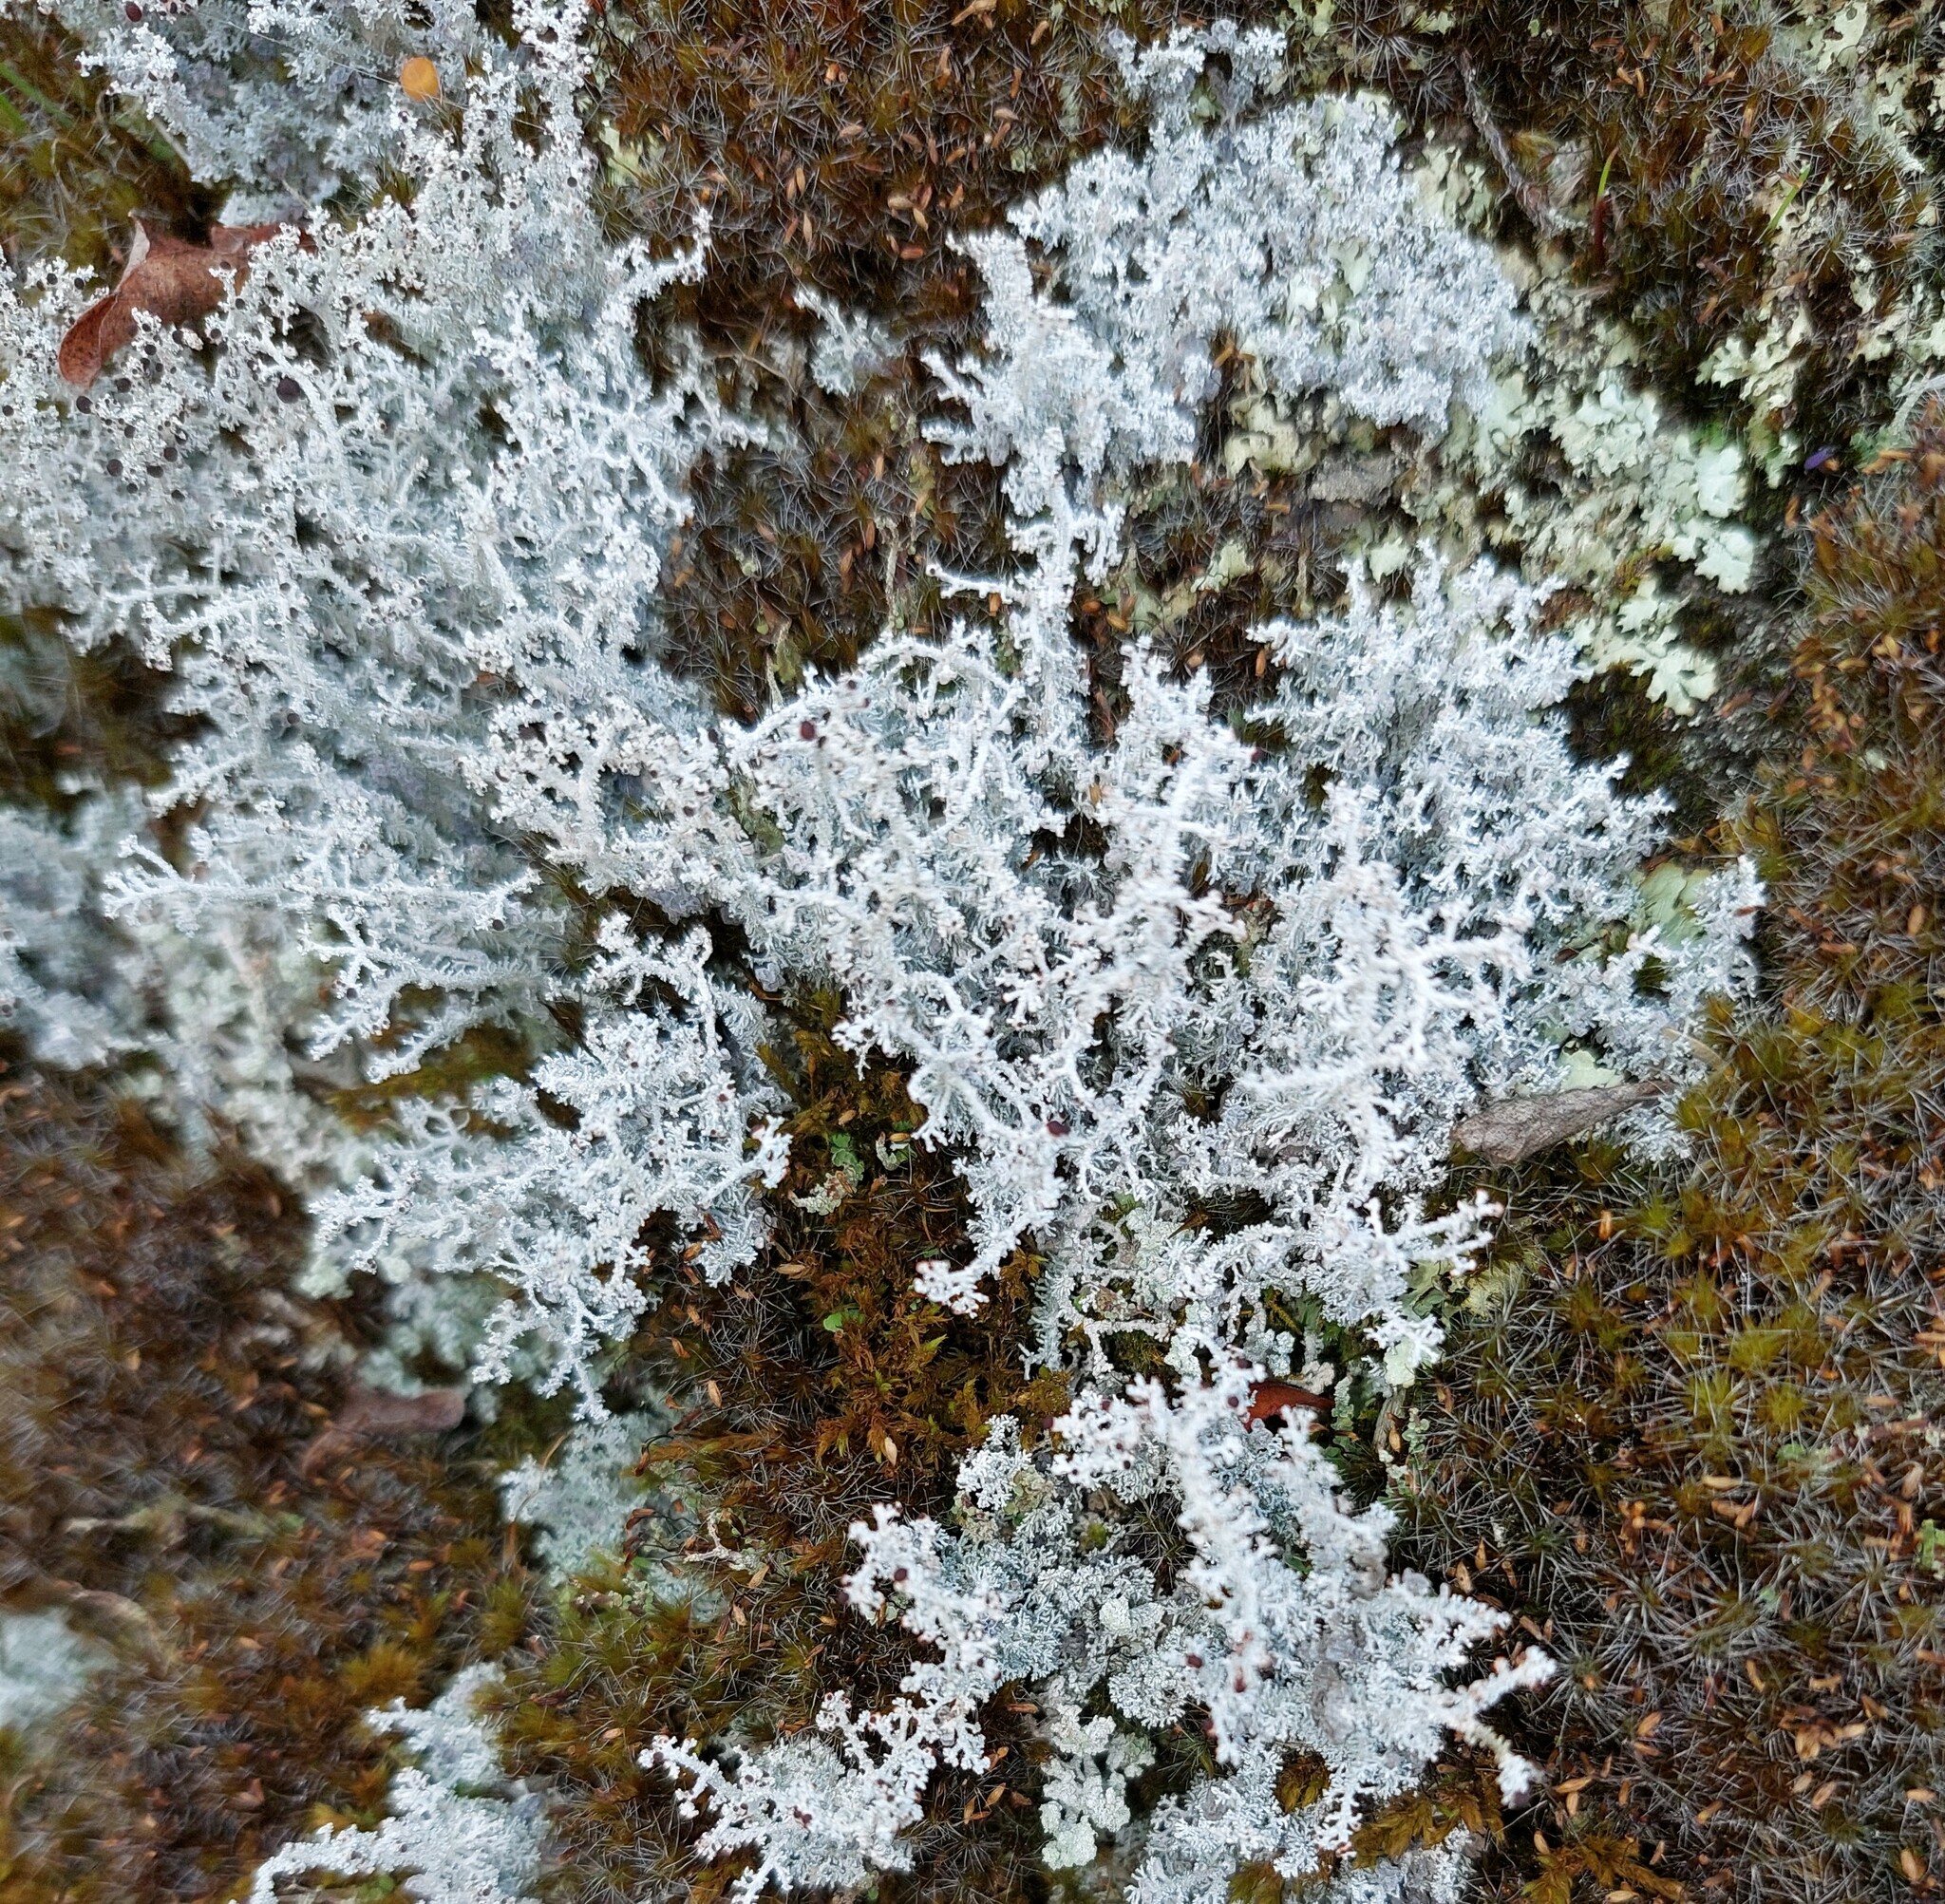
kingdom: Fungi
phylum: Ascomycota
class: Lecanoromycetes
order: Lecanorales
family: Stereocaulaceae
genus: Stereocaulon
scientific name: Stereocaulon ramulosum
